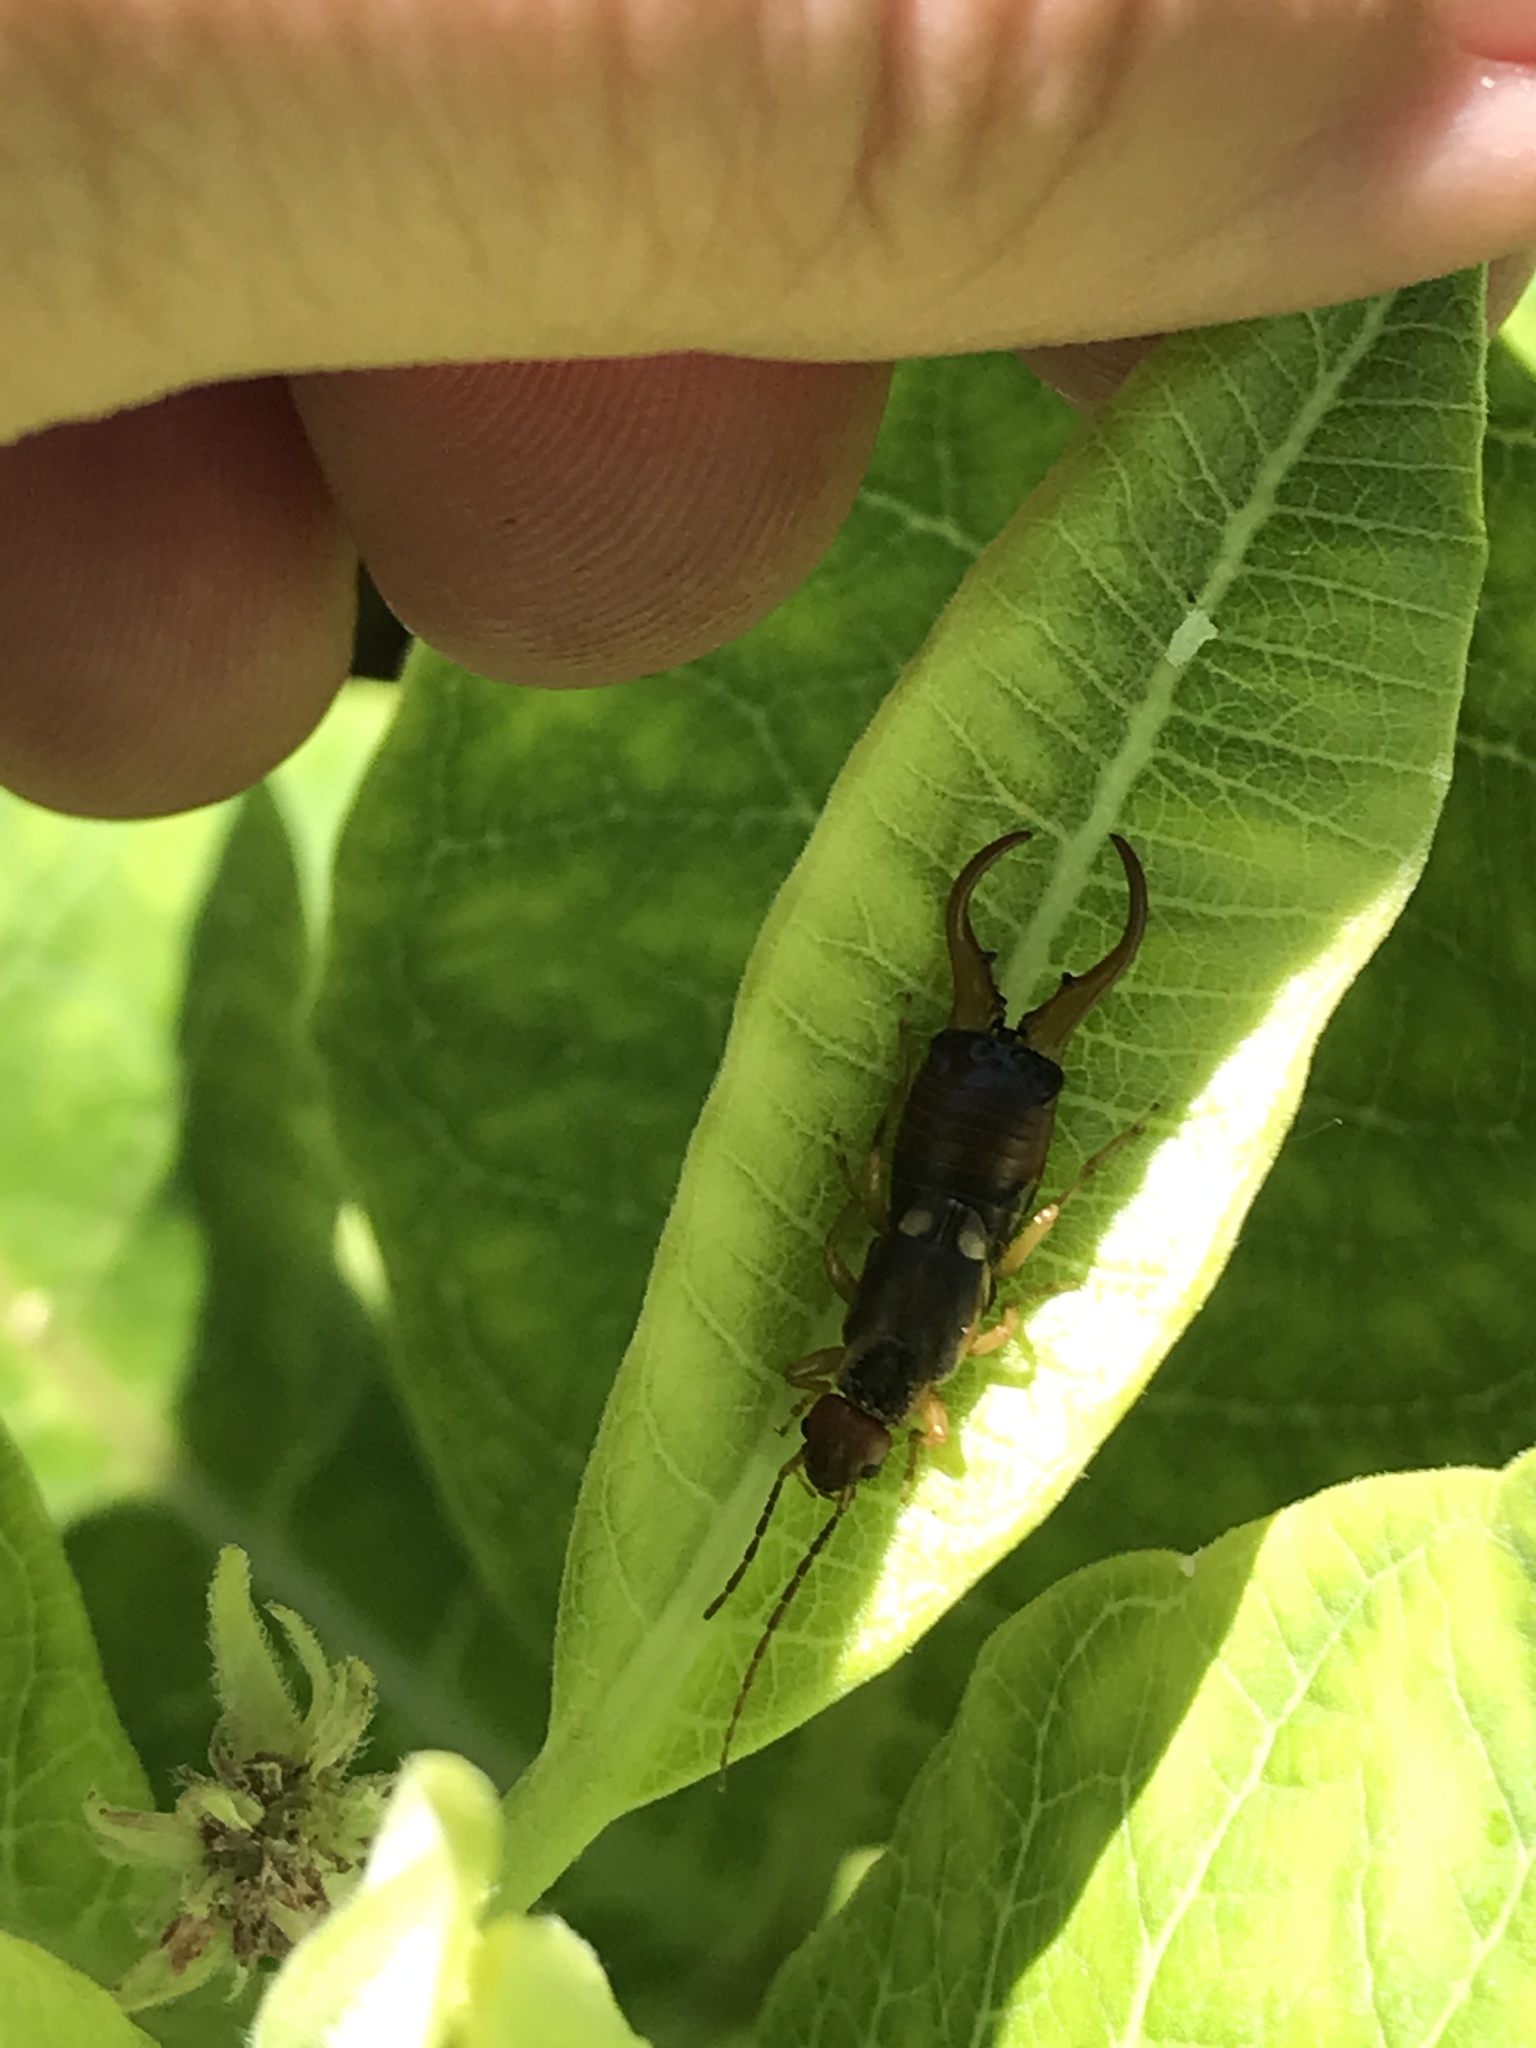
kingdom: Animalia
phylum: Arthropoda
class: Insecta
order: Dermaptera
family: Forficulidae
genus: Forficula
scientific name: Forficula
